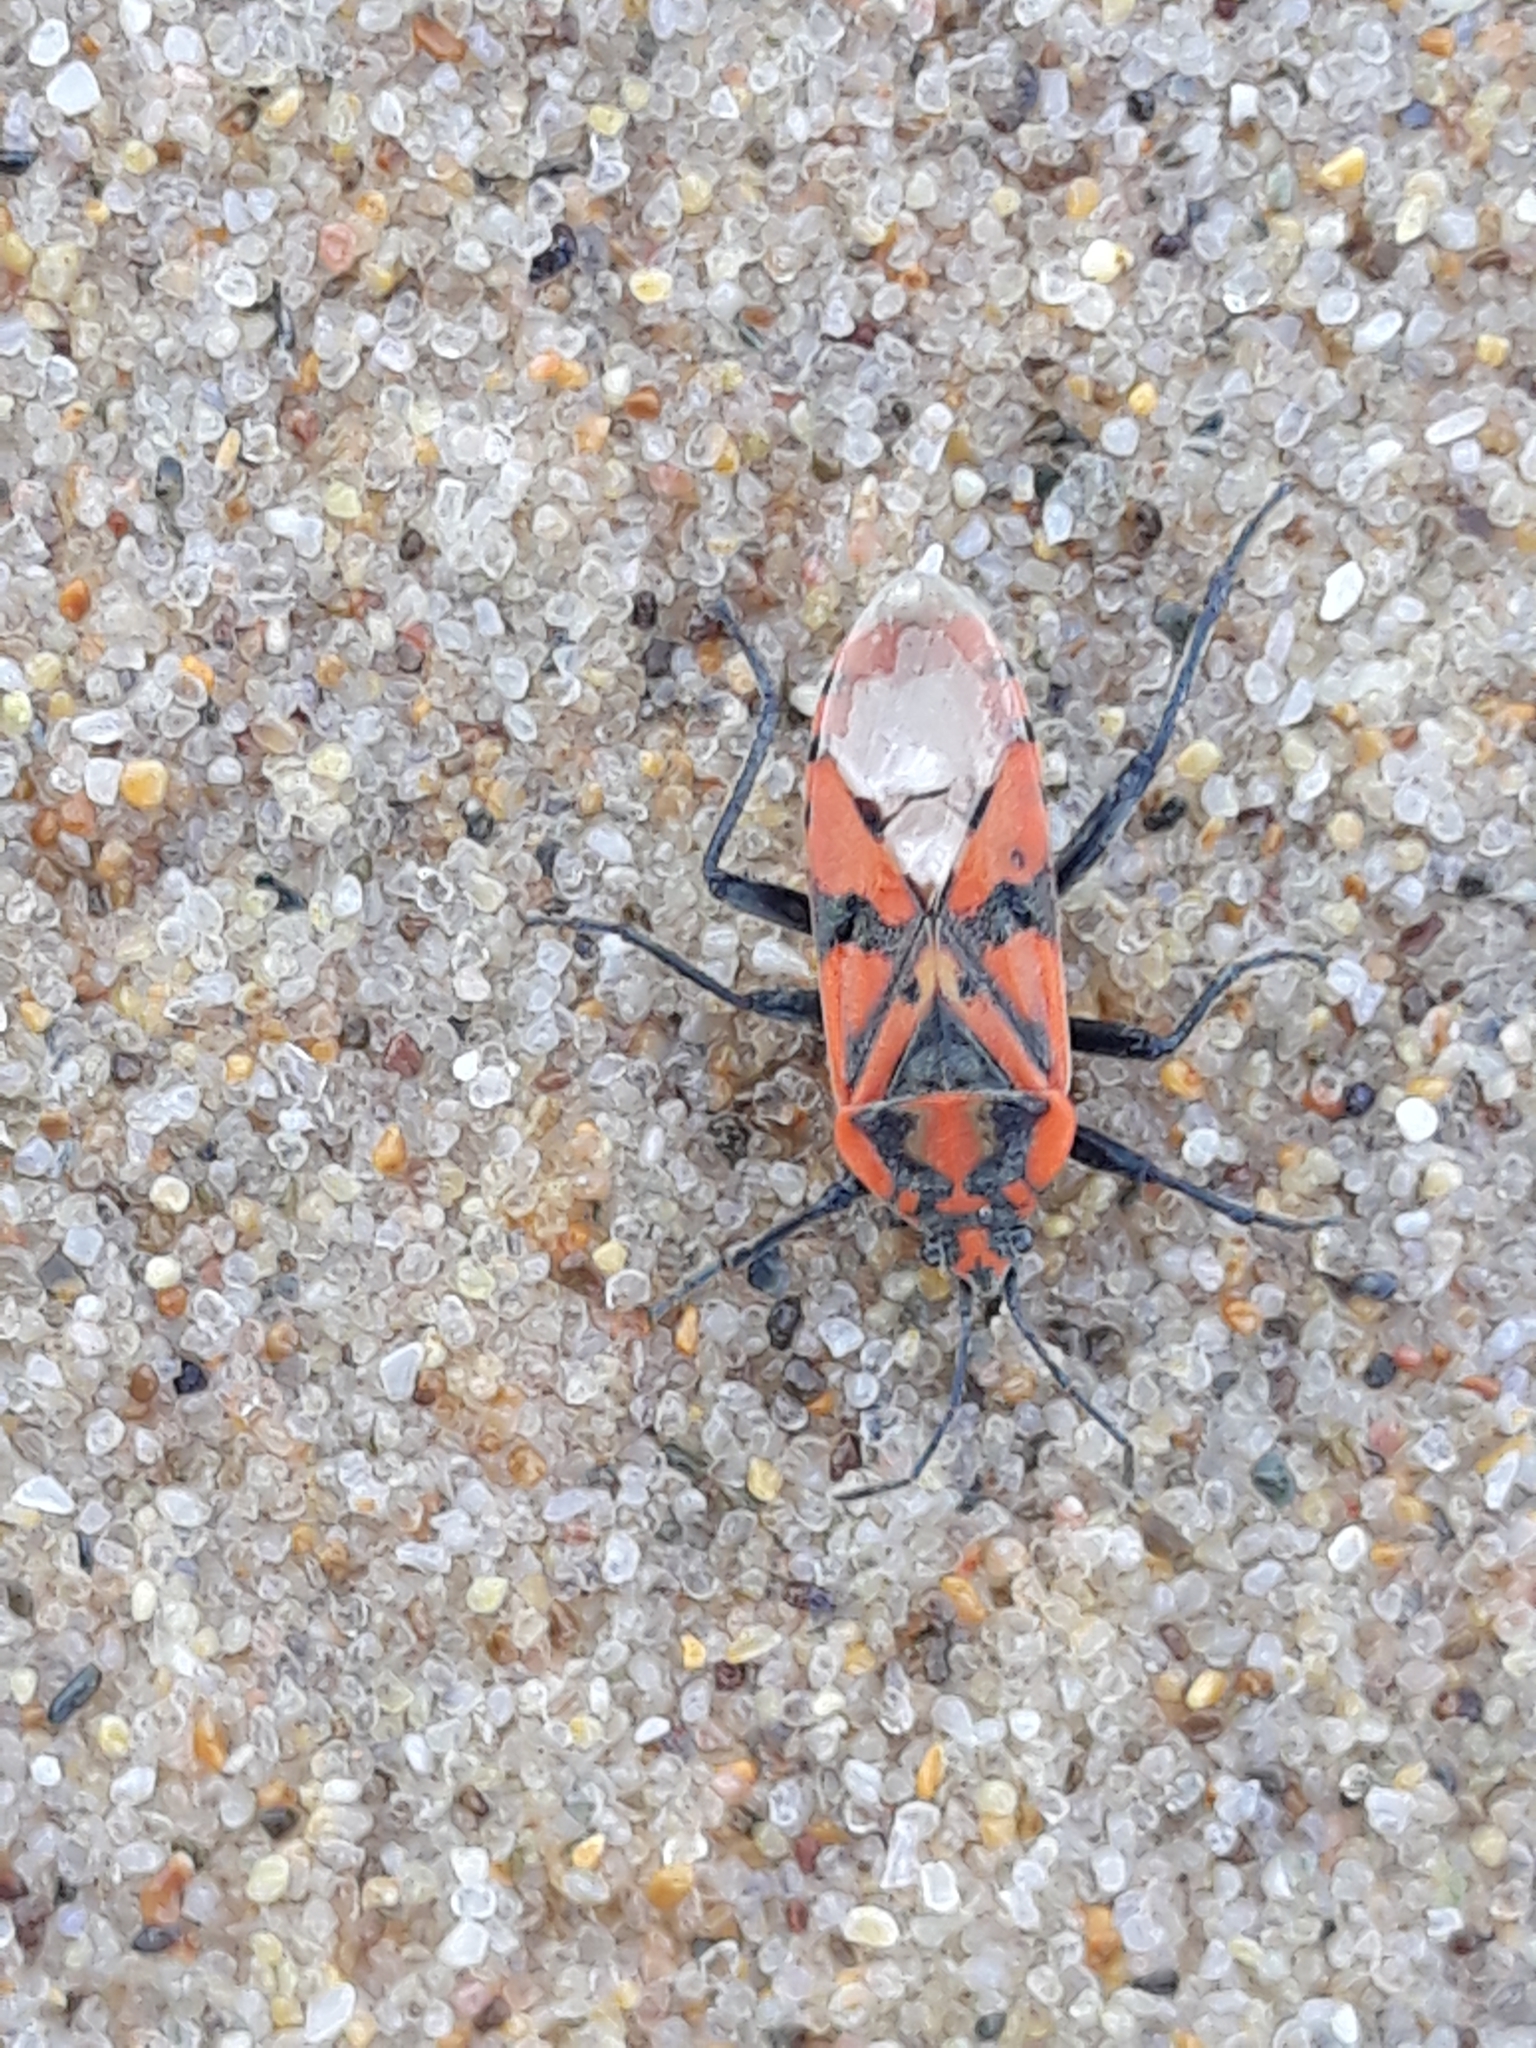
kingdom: Animalia
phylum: Arthropoda
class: Insecta
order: Hemiptera
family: Lygaeidae
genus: Spilostethus
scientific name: Spilostethus pandurus
